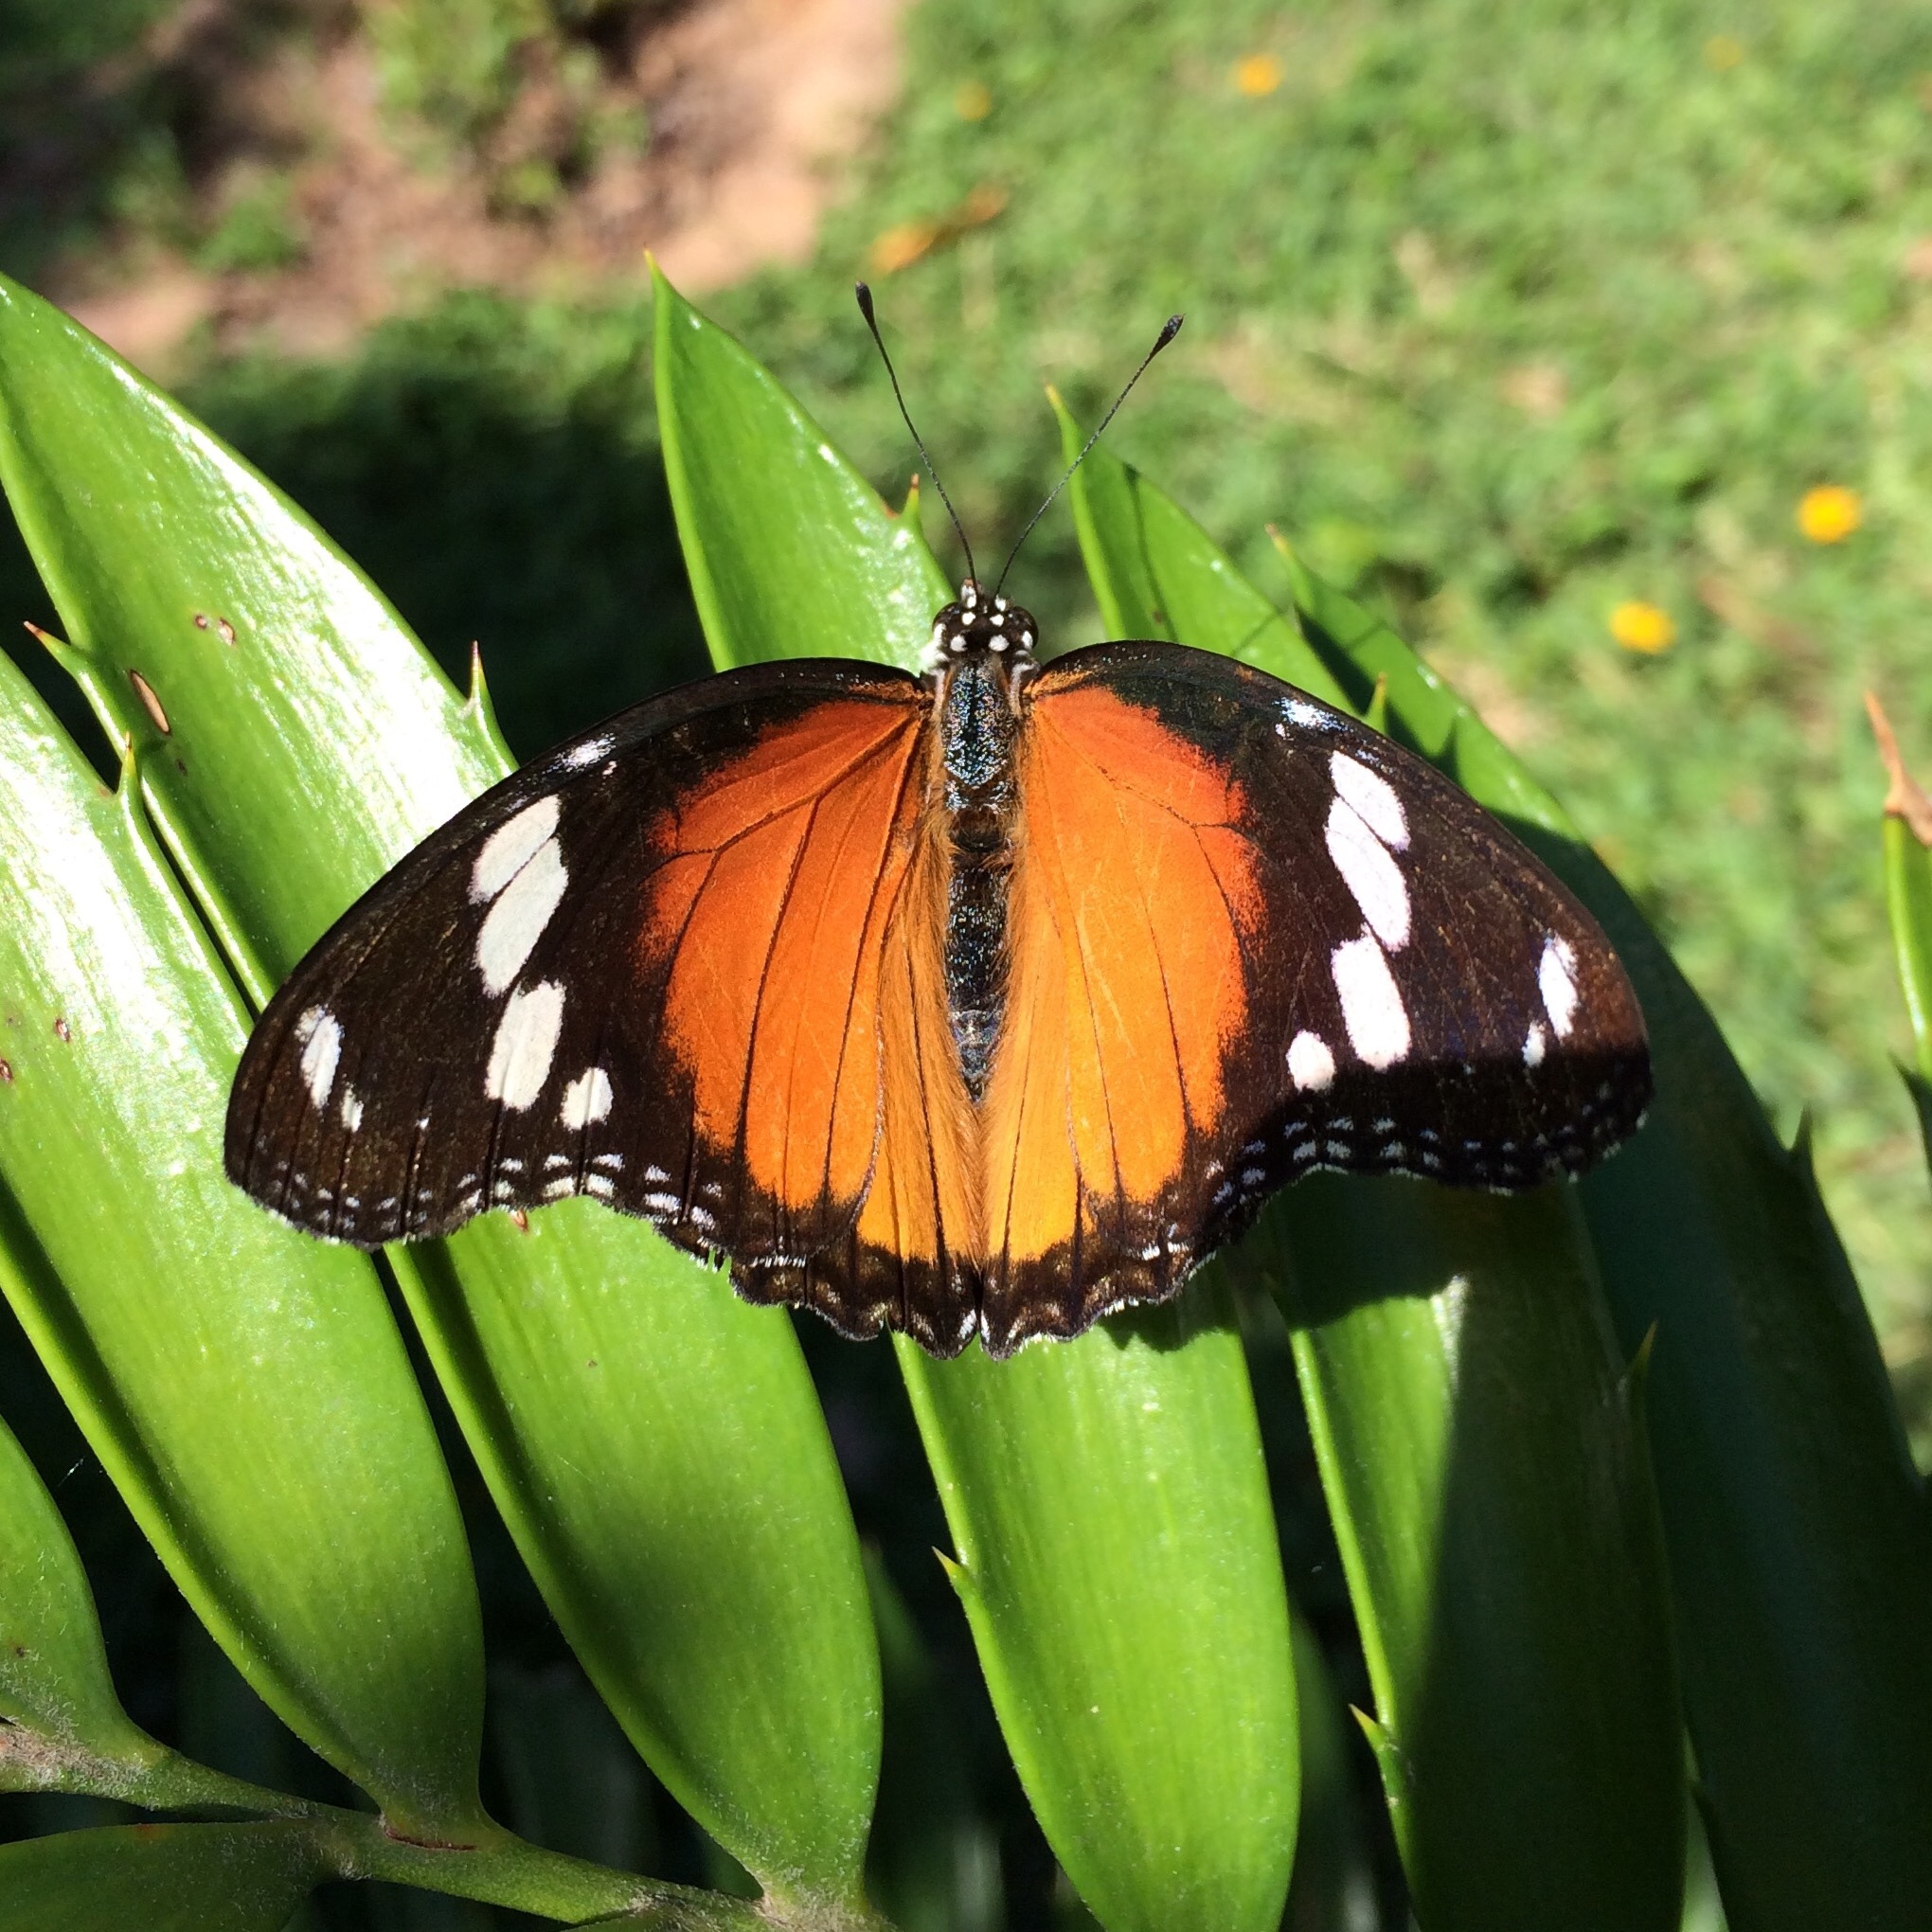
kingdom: Animalia
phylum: Arthropoda
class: Insecta
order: Lepidoptera
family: Nymphalidae
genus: Hypolimnas
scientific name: Hypolimnas misippus
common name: False plain tiger
